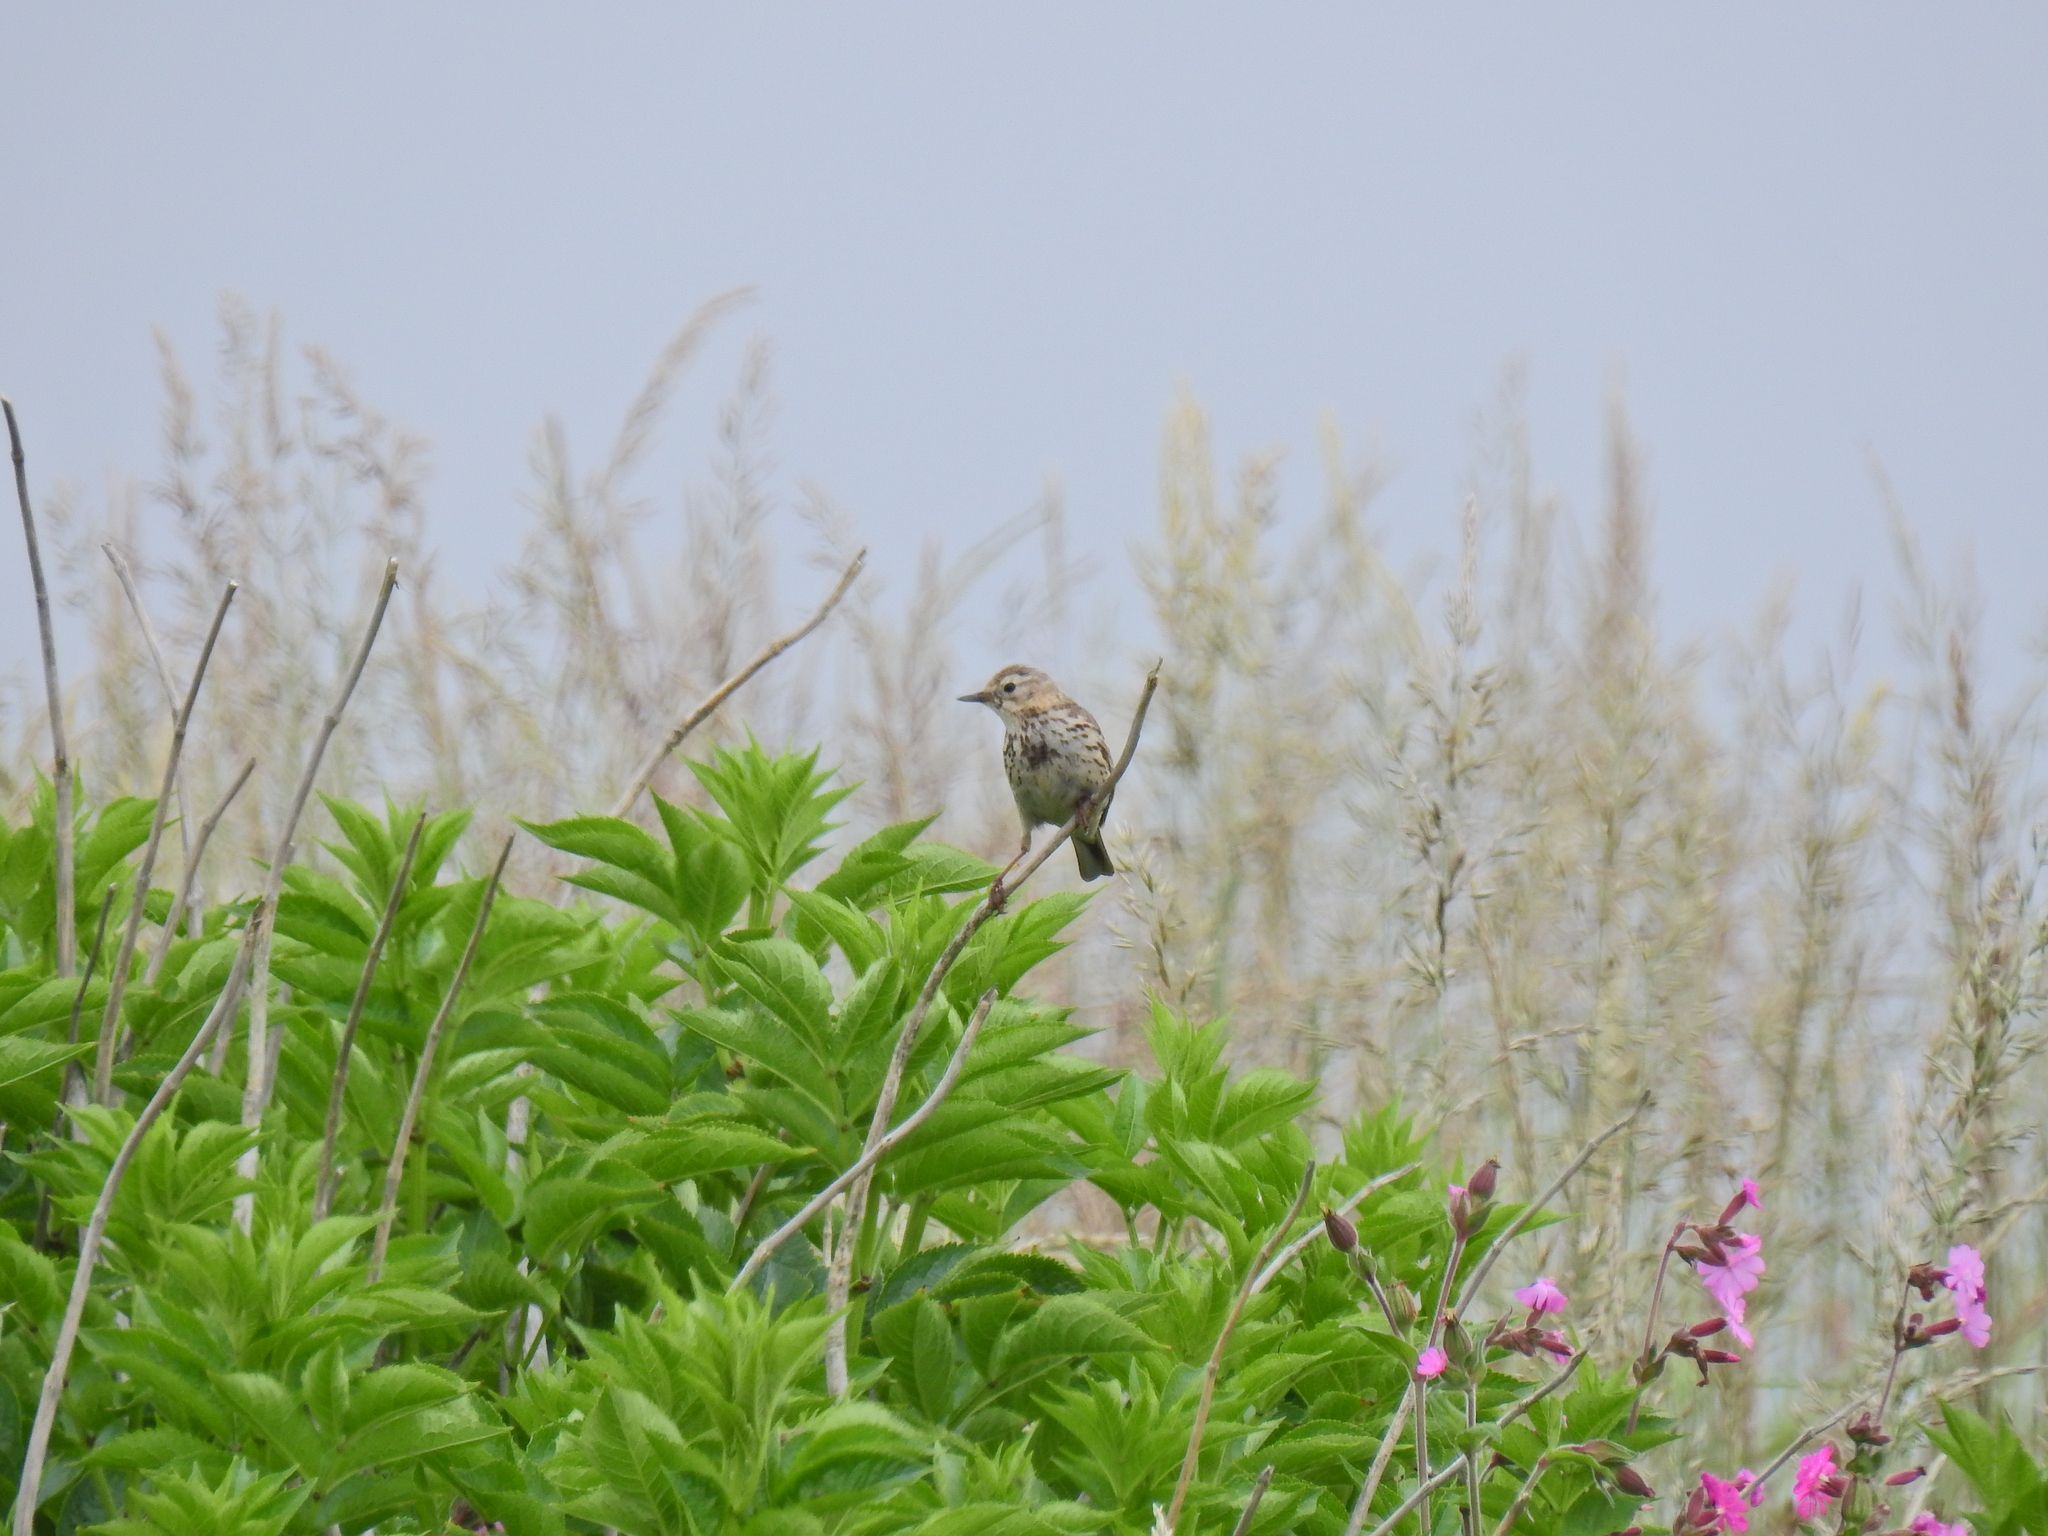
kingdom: Animalia
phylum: Chordata
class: Aves
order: Passeriformes
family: Motacillidae
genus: Anthus
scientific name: Anthus pratensis
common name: Meadow pipit
